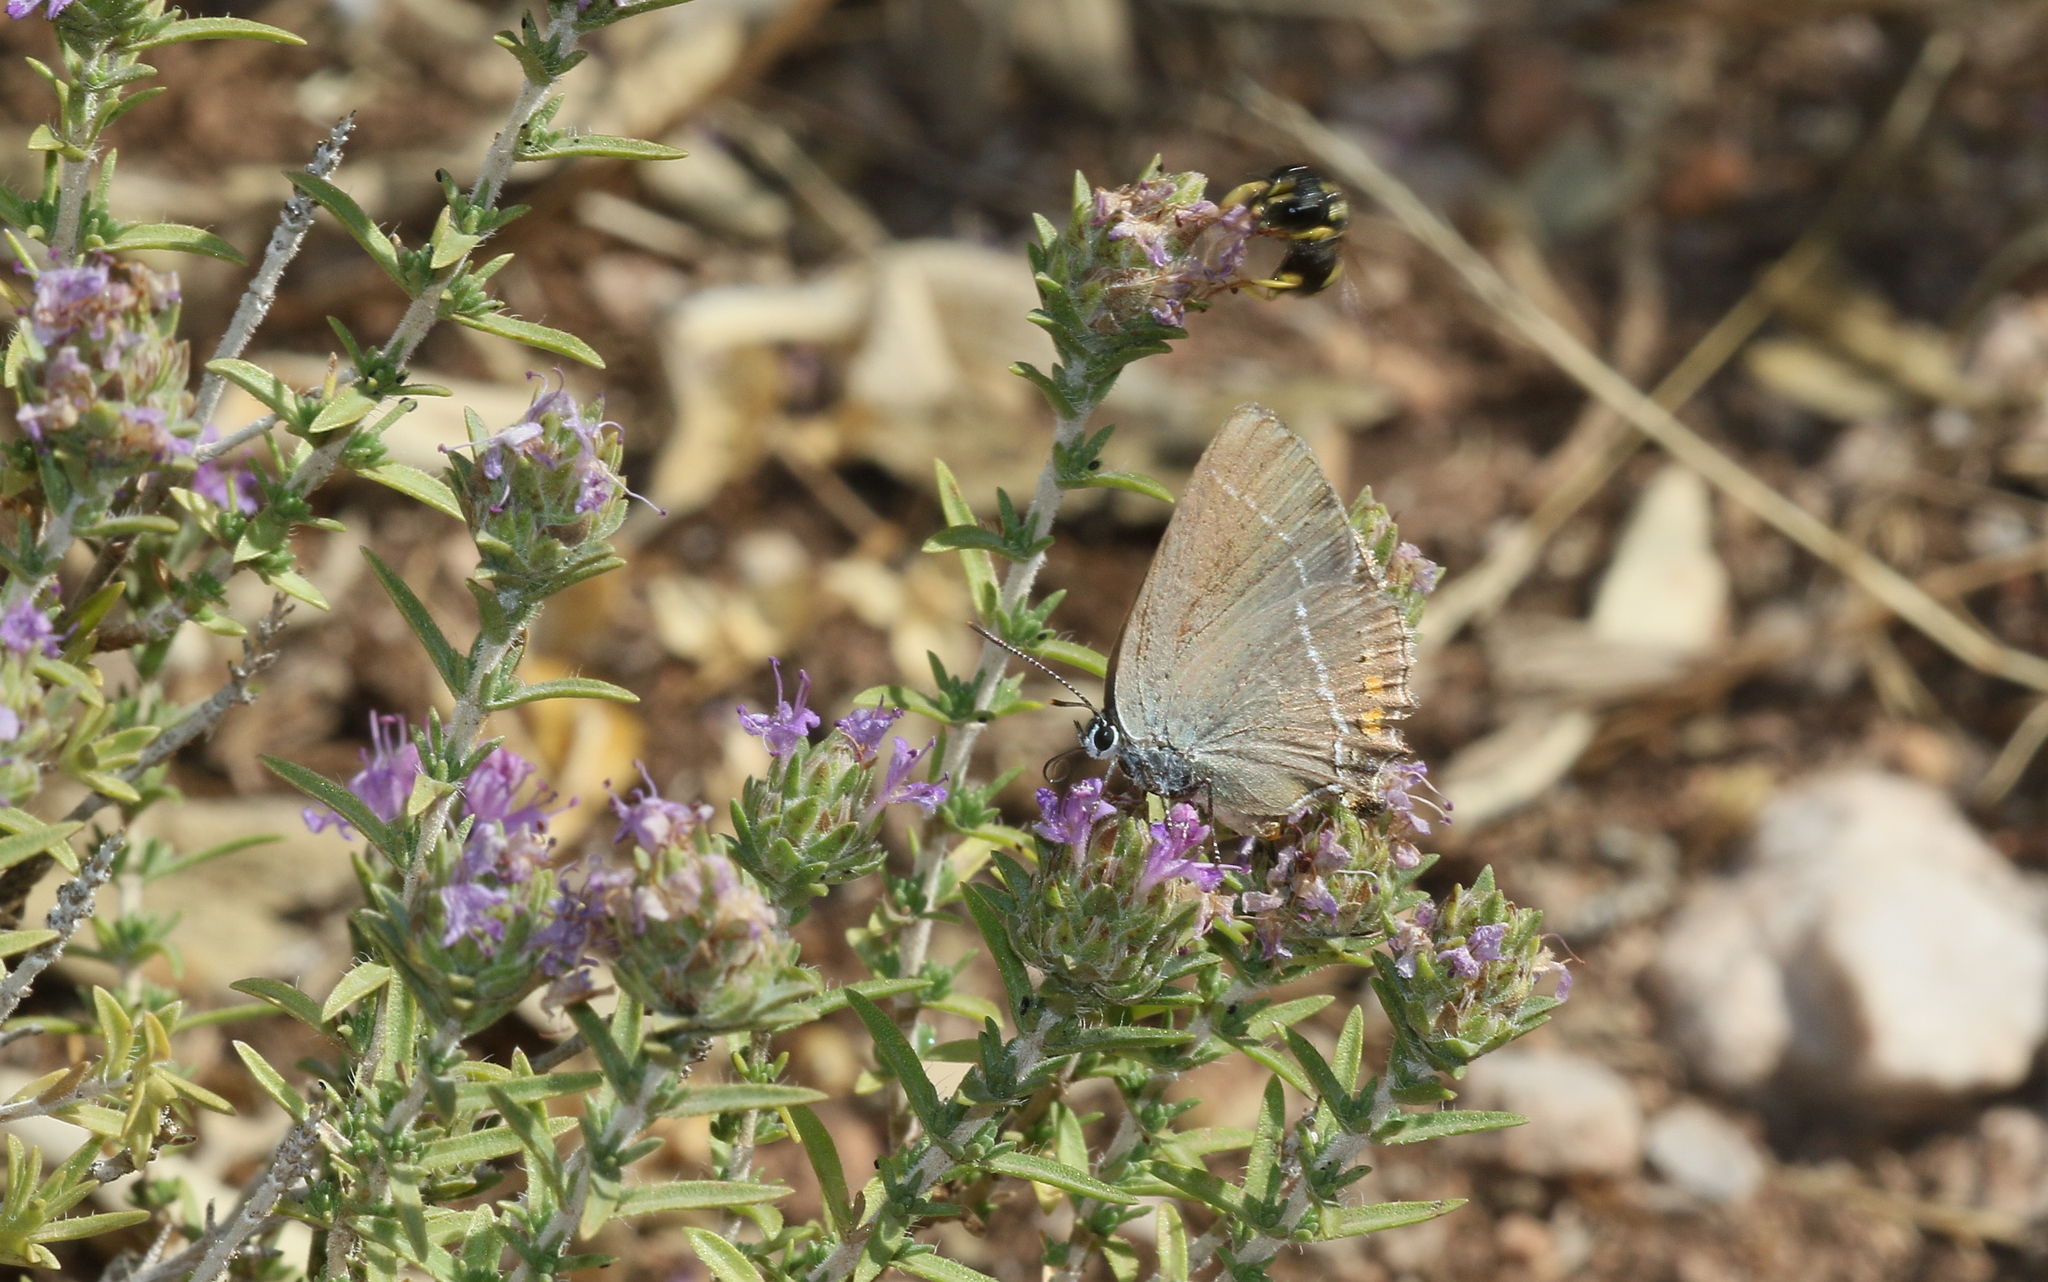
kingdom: Animalia
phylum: Arthropoda
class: Insecta
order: Lepidoptera
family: Lycaenidae
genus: Tuttiola
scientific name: Tuttiola spini
